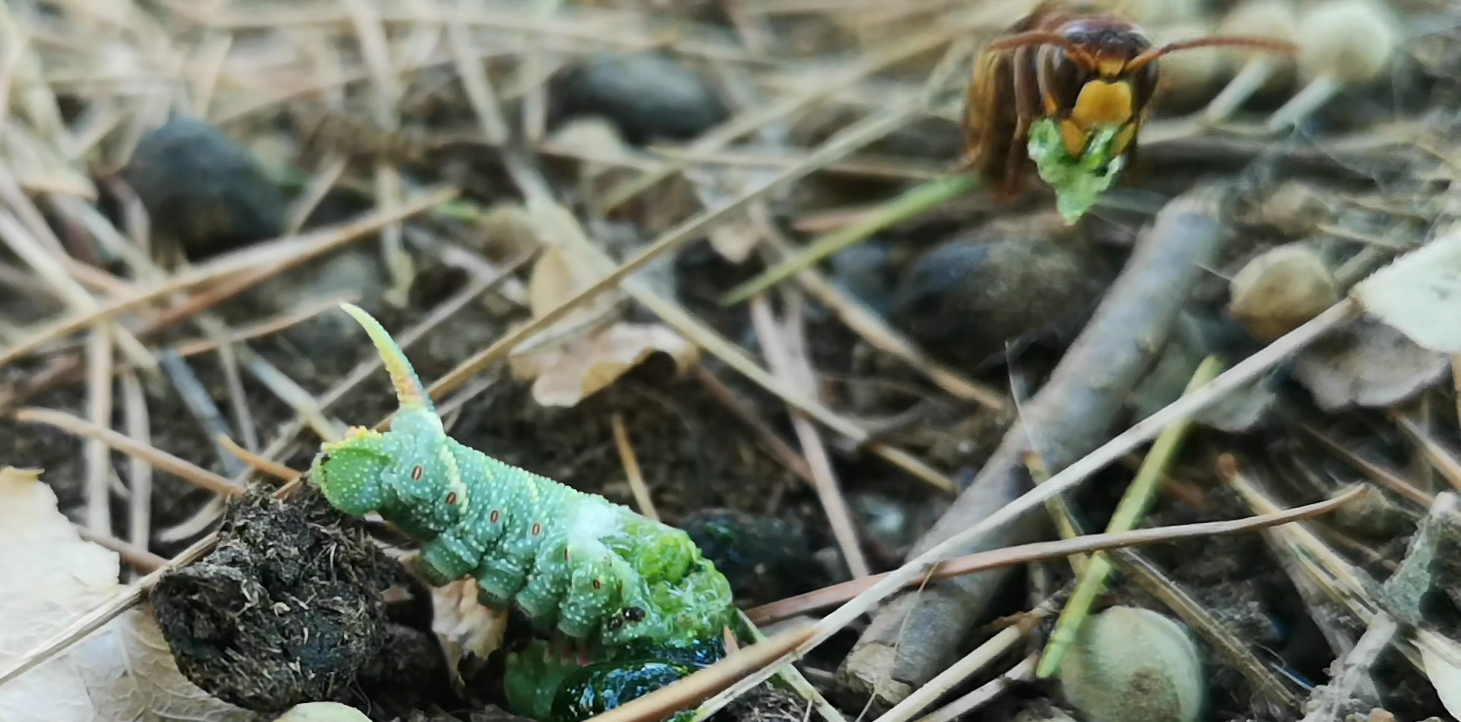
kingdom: Animalia
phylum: Arthropoda
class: Insecta
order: Lepidoptera
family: Sphingidae
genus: Mimas
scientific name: Mimas tiliae
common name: Lime hawk-moth
